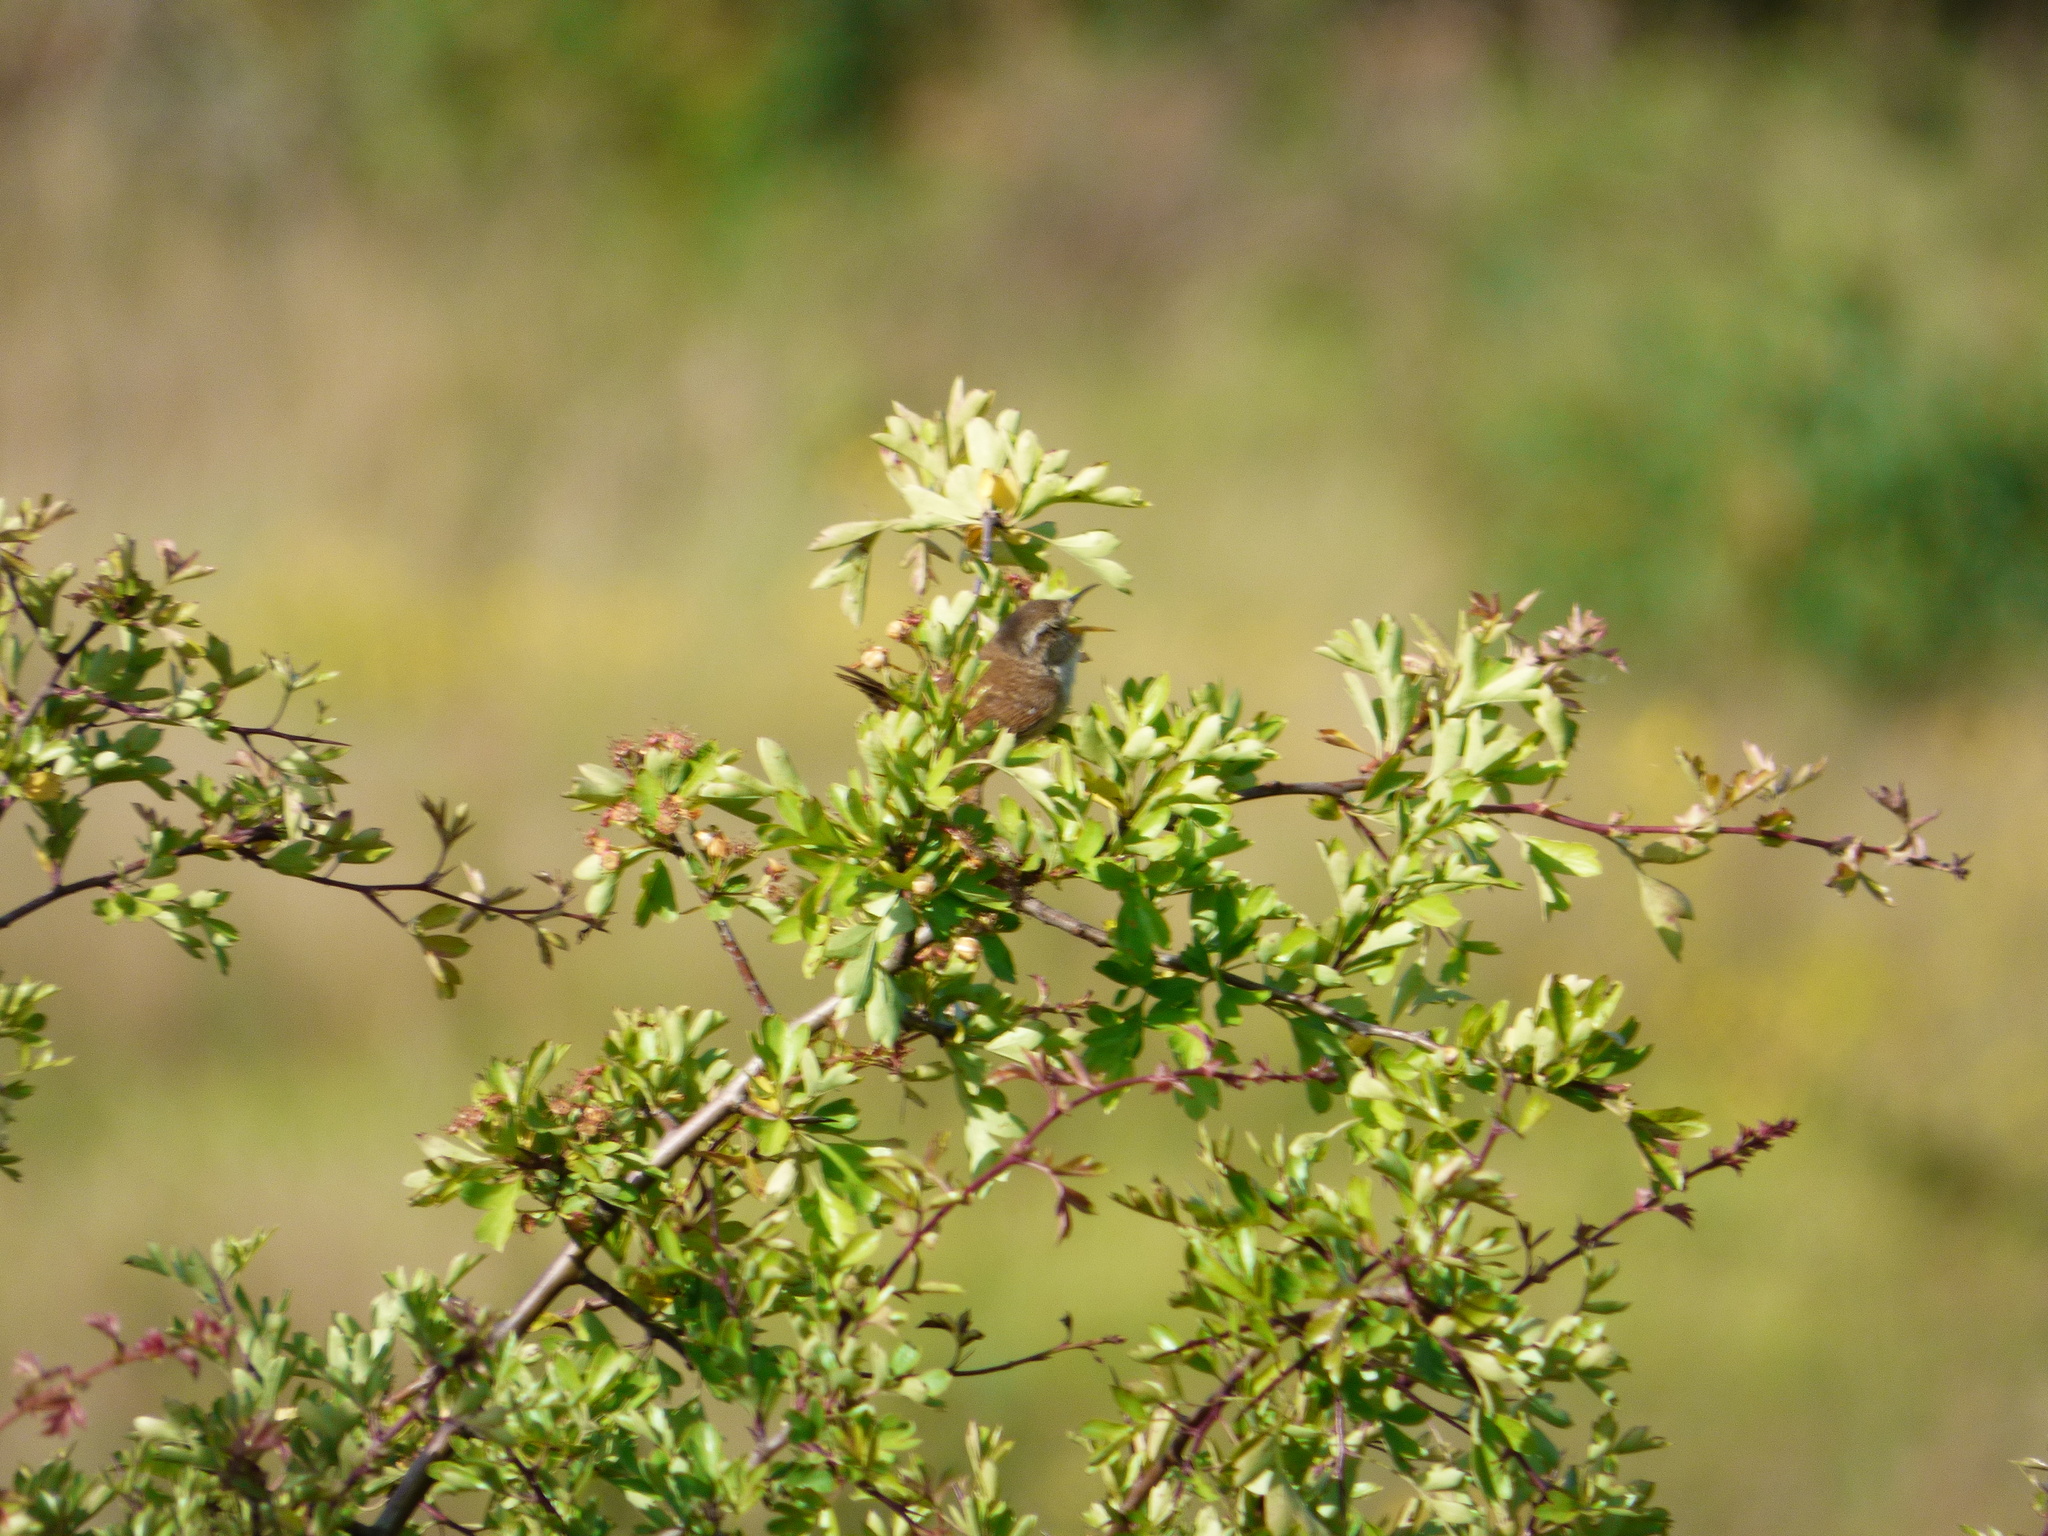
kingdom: Animalia
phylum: Chordata
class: Aves
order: Passeriformes
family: Troglodytidae
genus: Troglodytes
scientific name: Troglodytes troglodytes
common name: Eurasian wren
